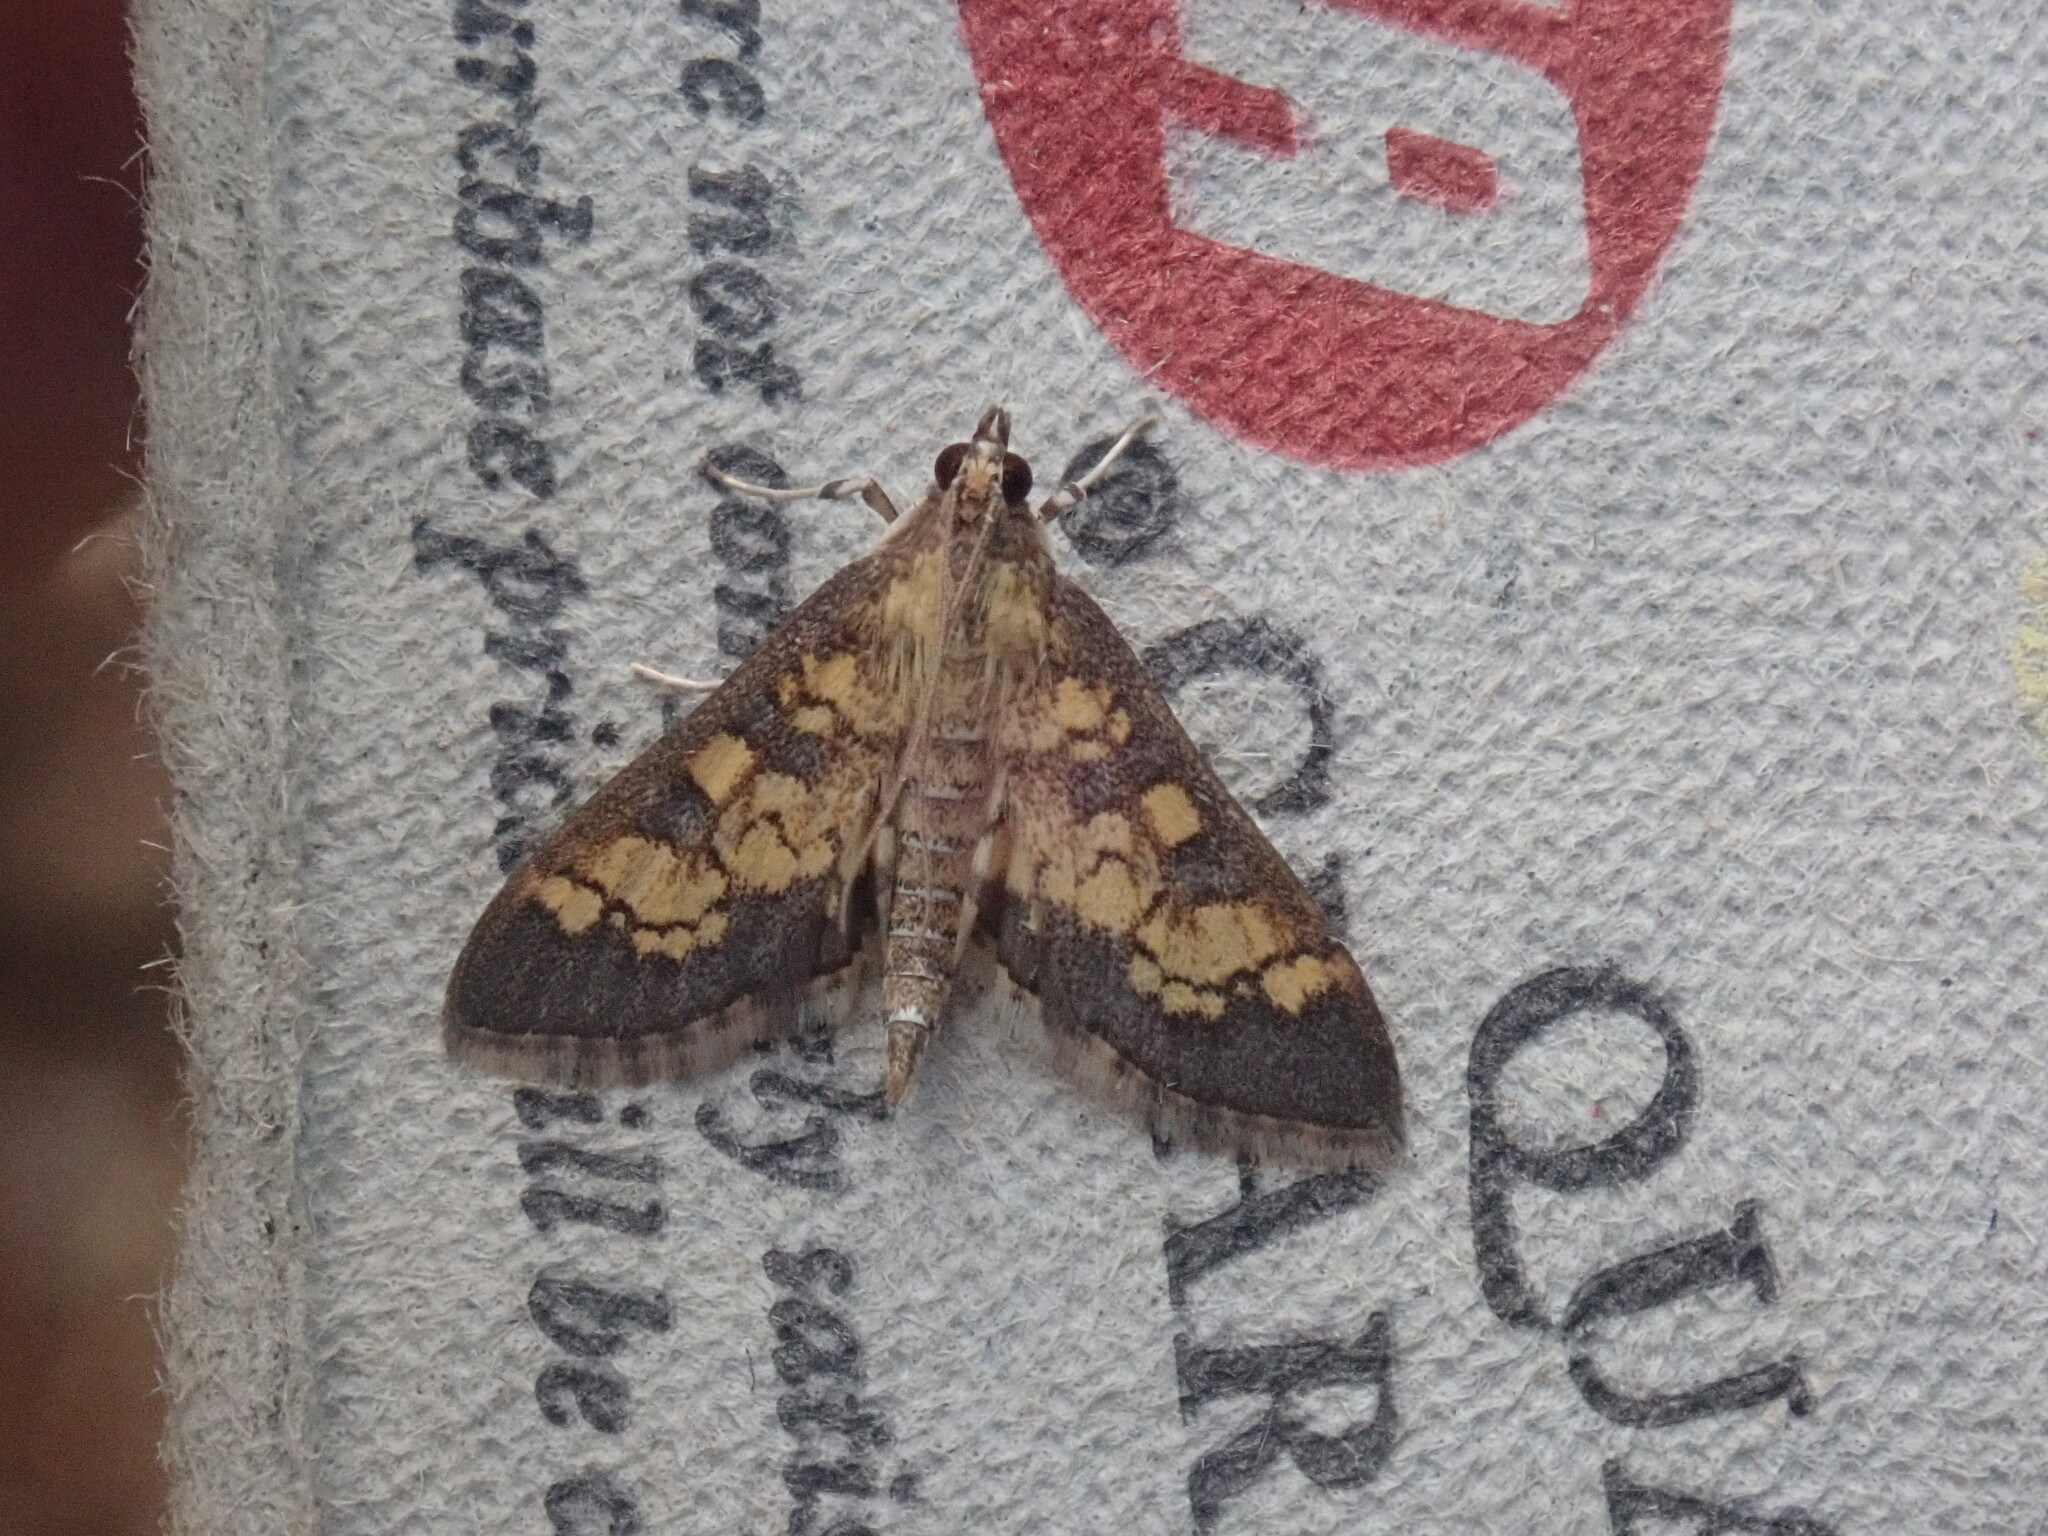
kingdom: Animalia
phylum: Arthropoda
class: Insecta
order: Lepidoptera
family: Crambidae
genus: Epipagis
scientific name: Epipagis adipaloides
